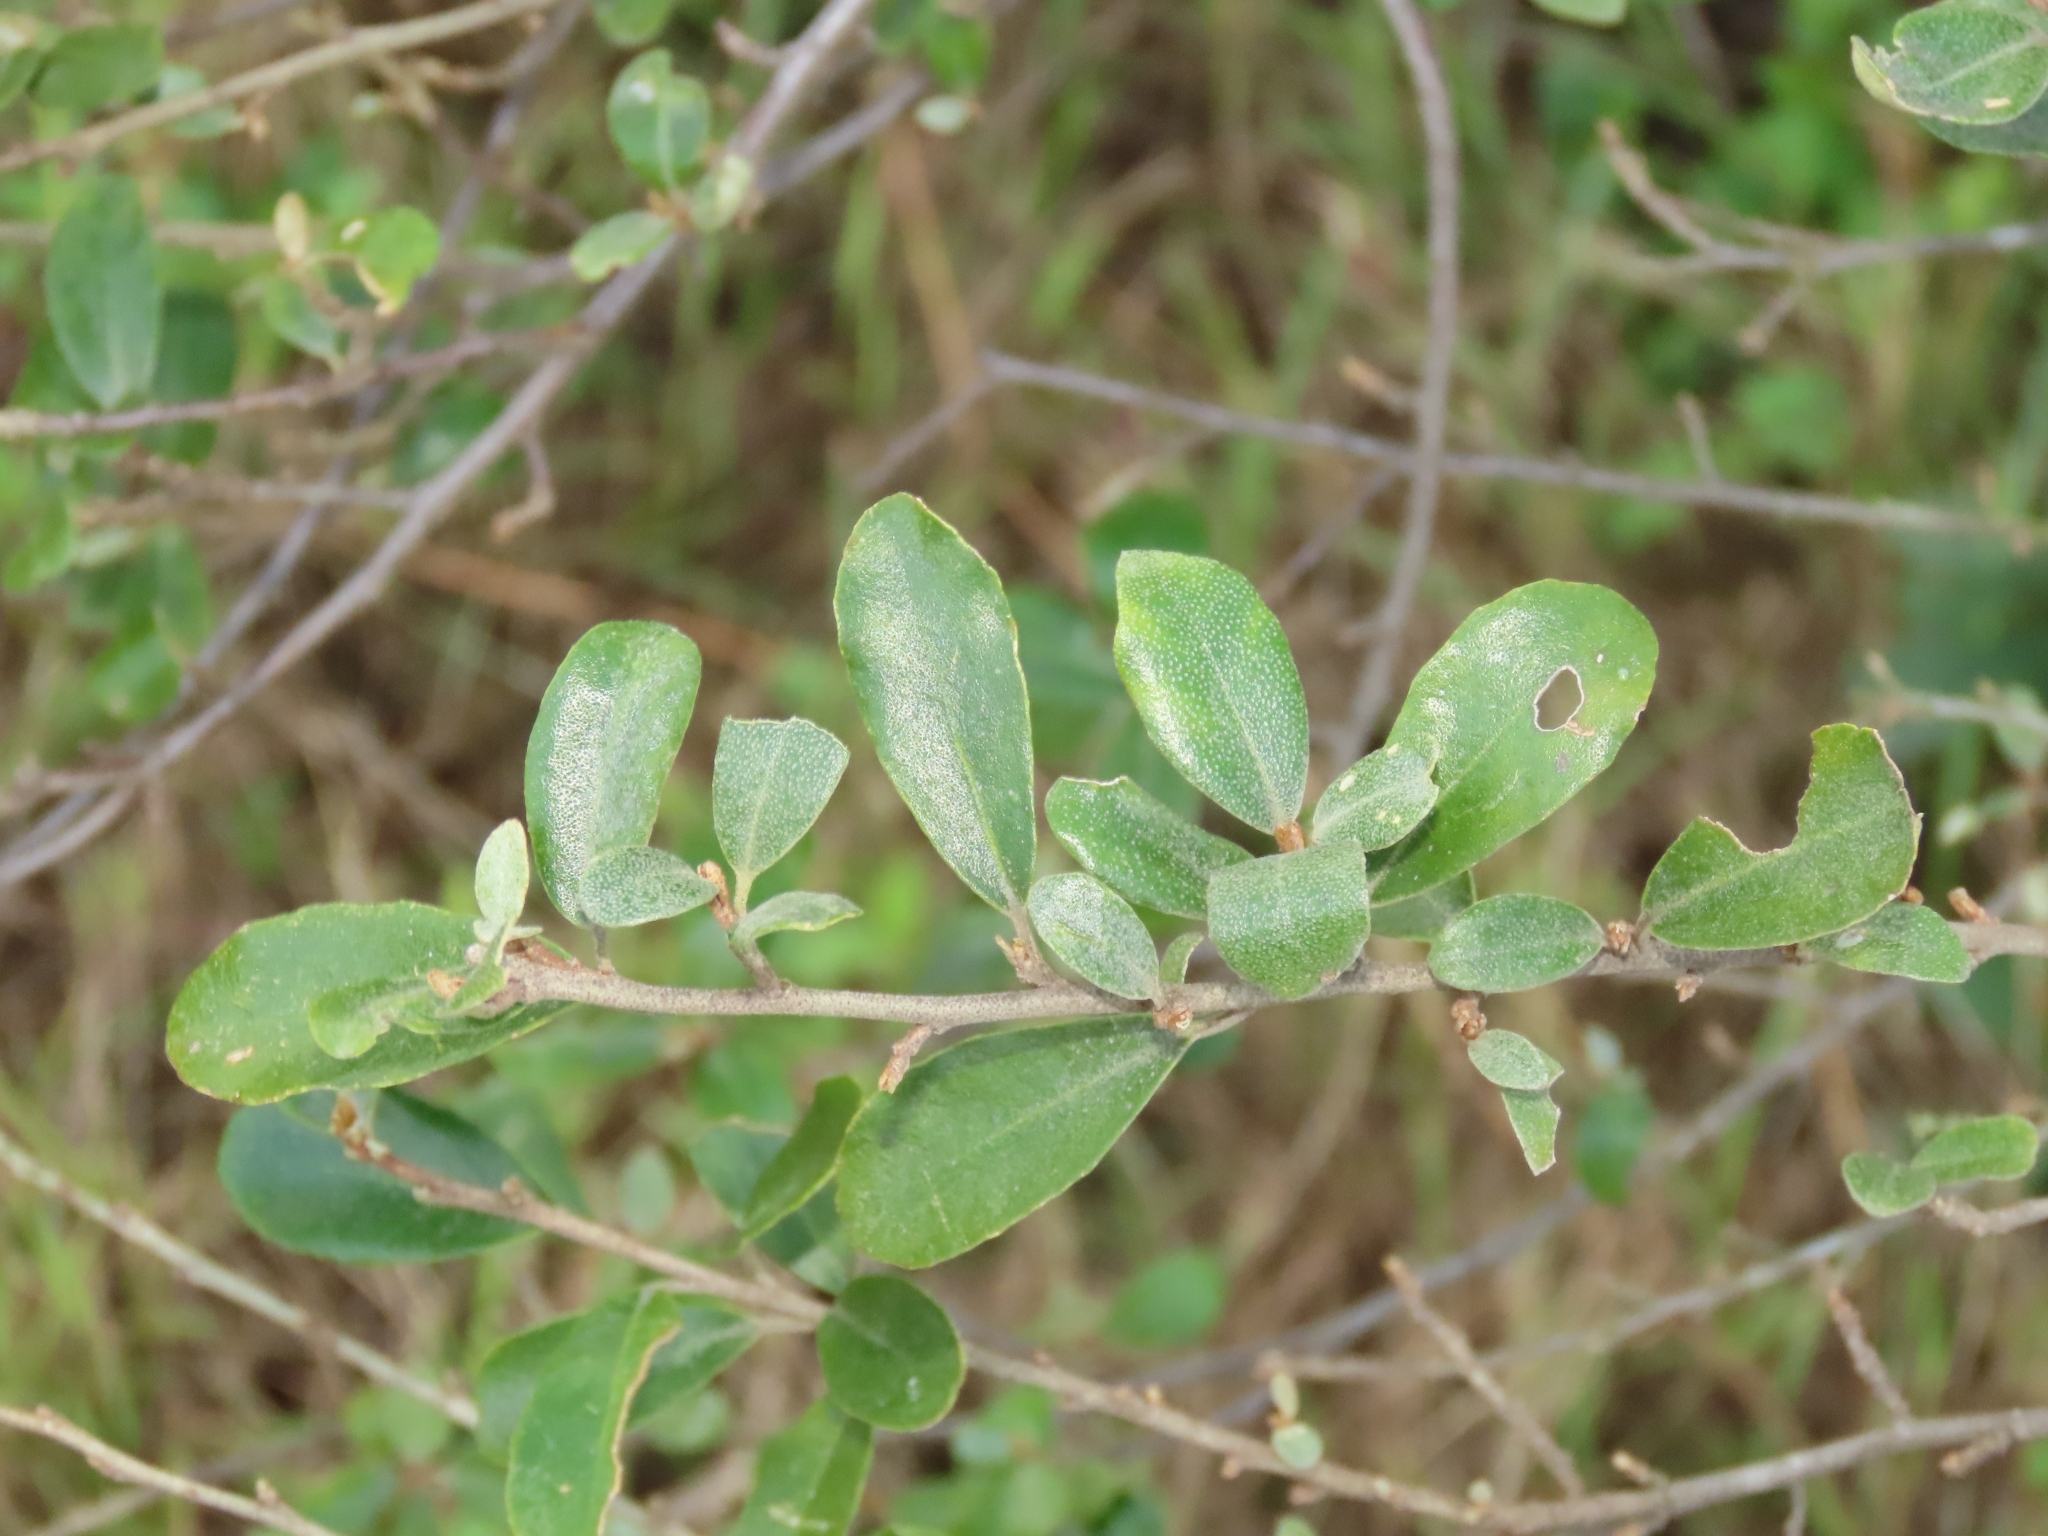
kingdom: Plantae
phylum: Tracheophyta
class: Magnoliopsida
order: Rosales
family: Elaeagnaceae
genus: Elaeagnus
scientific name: Elaeagnus oldhamii
